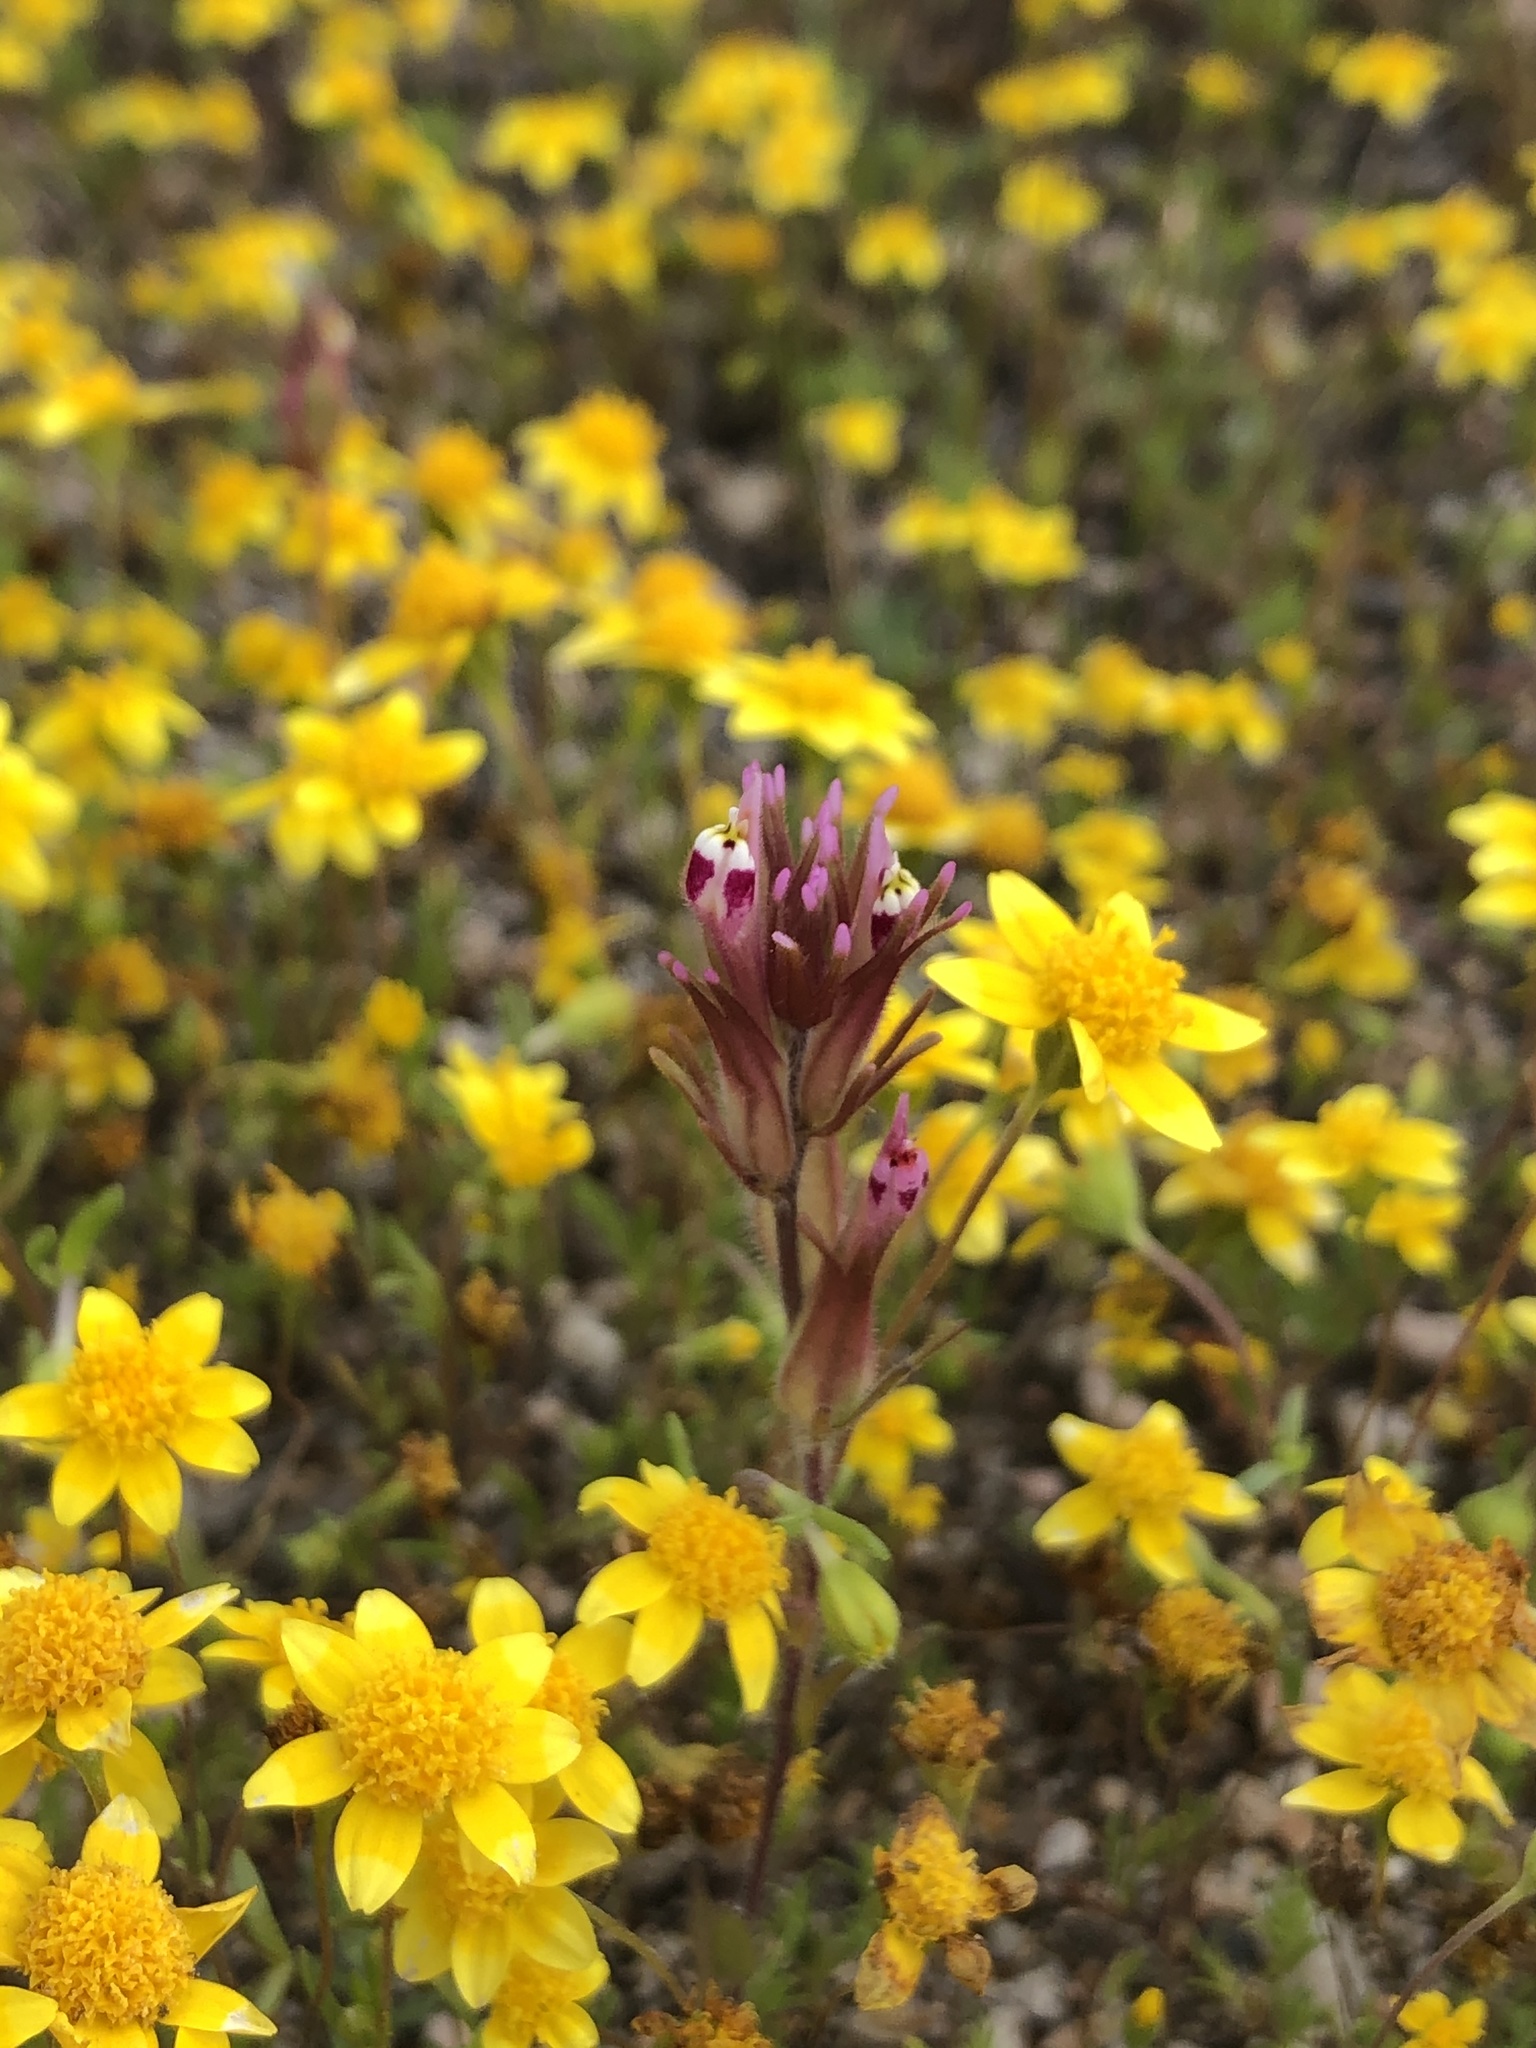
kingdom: Plantae
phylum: Tracheophyta
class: Magnoliopsida
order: Lamiales
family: Orobanchaceae
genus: Castilleja
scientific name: Castilleja brevistyla
